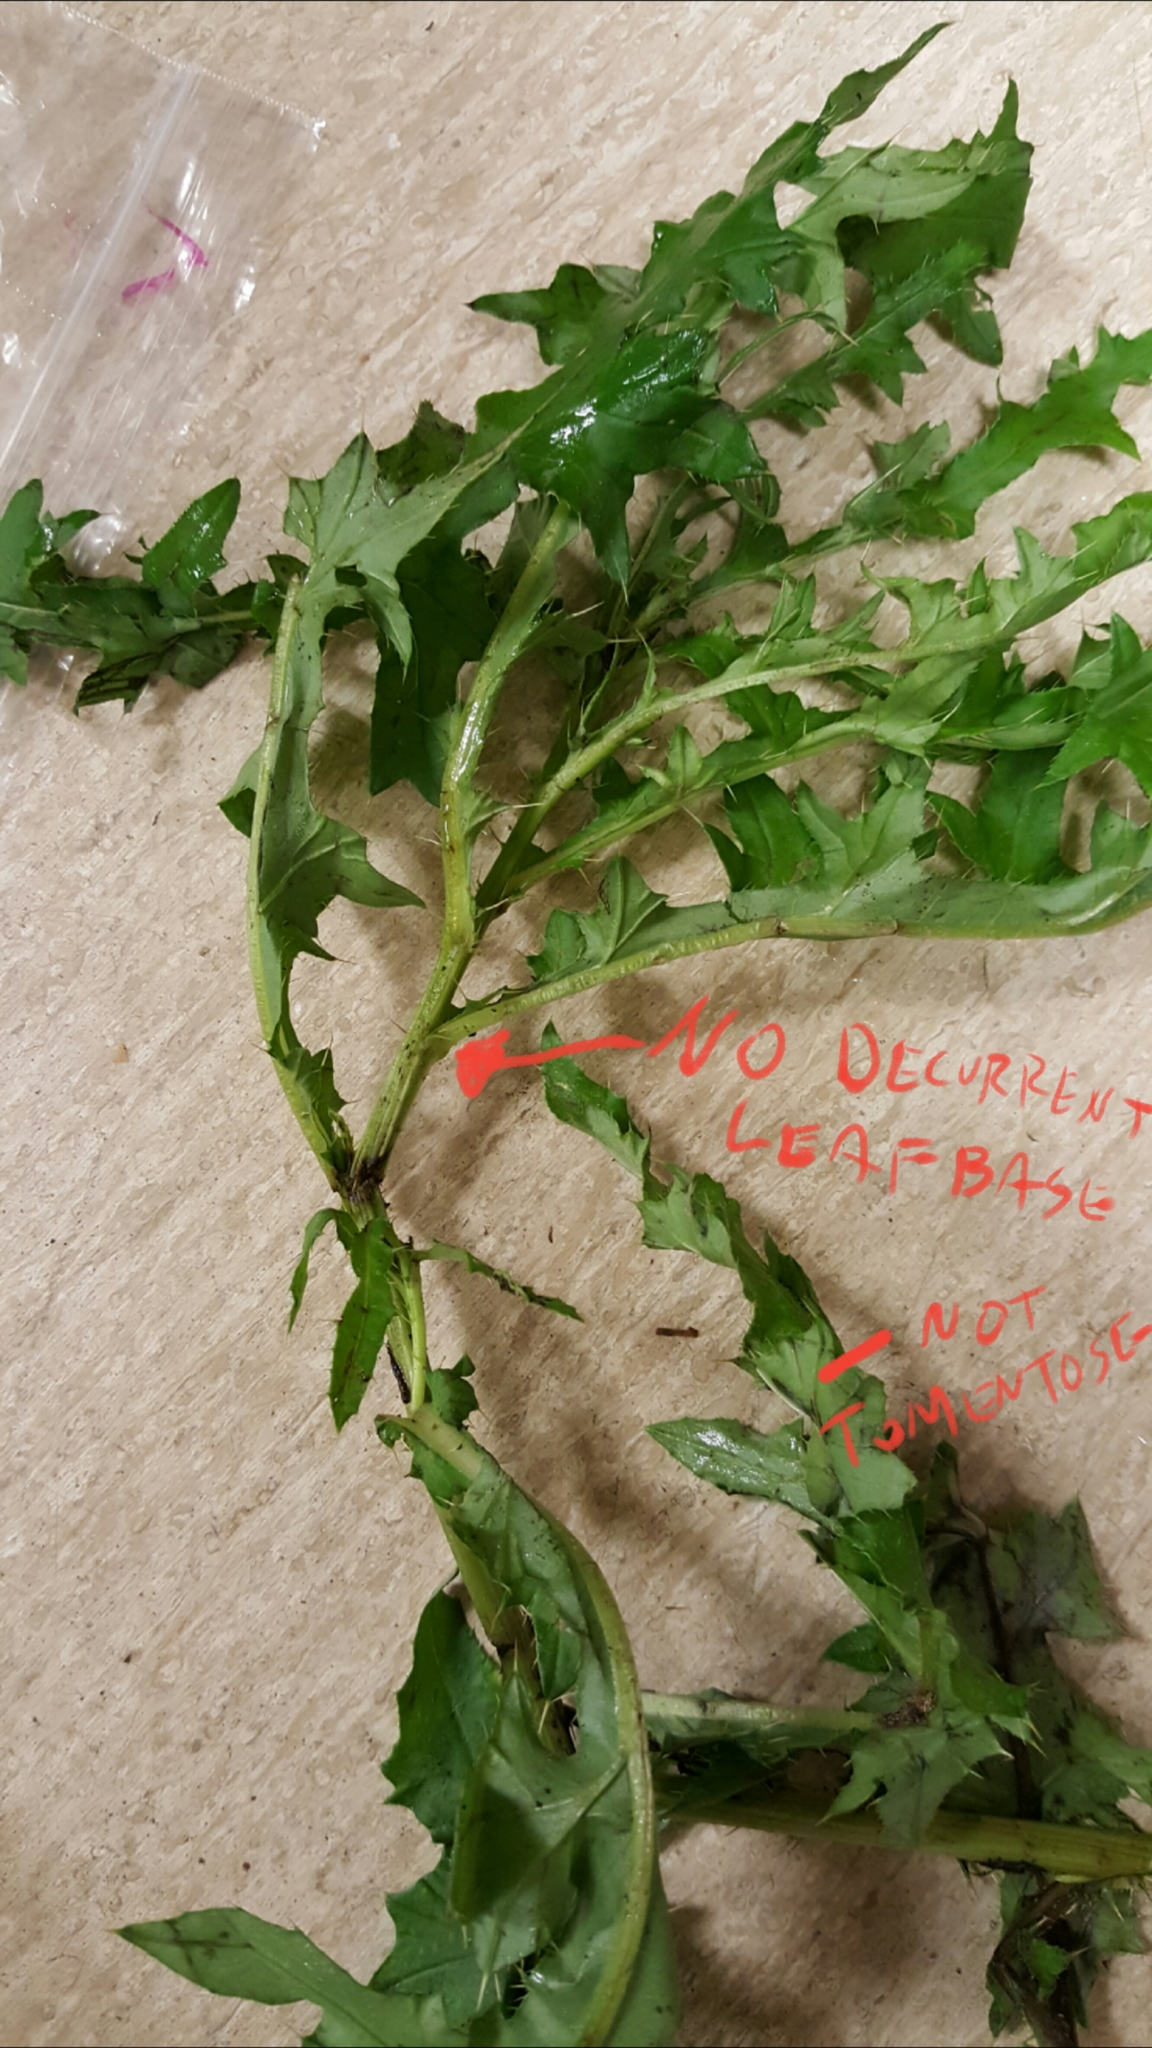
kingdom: Plantae
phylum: Tracheophyta
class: Magnoliopsida
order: Asterales
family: Asteraceae
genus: Cirsium
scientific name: Cirsium arvense
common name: Creeping thistle
